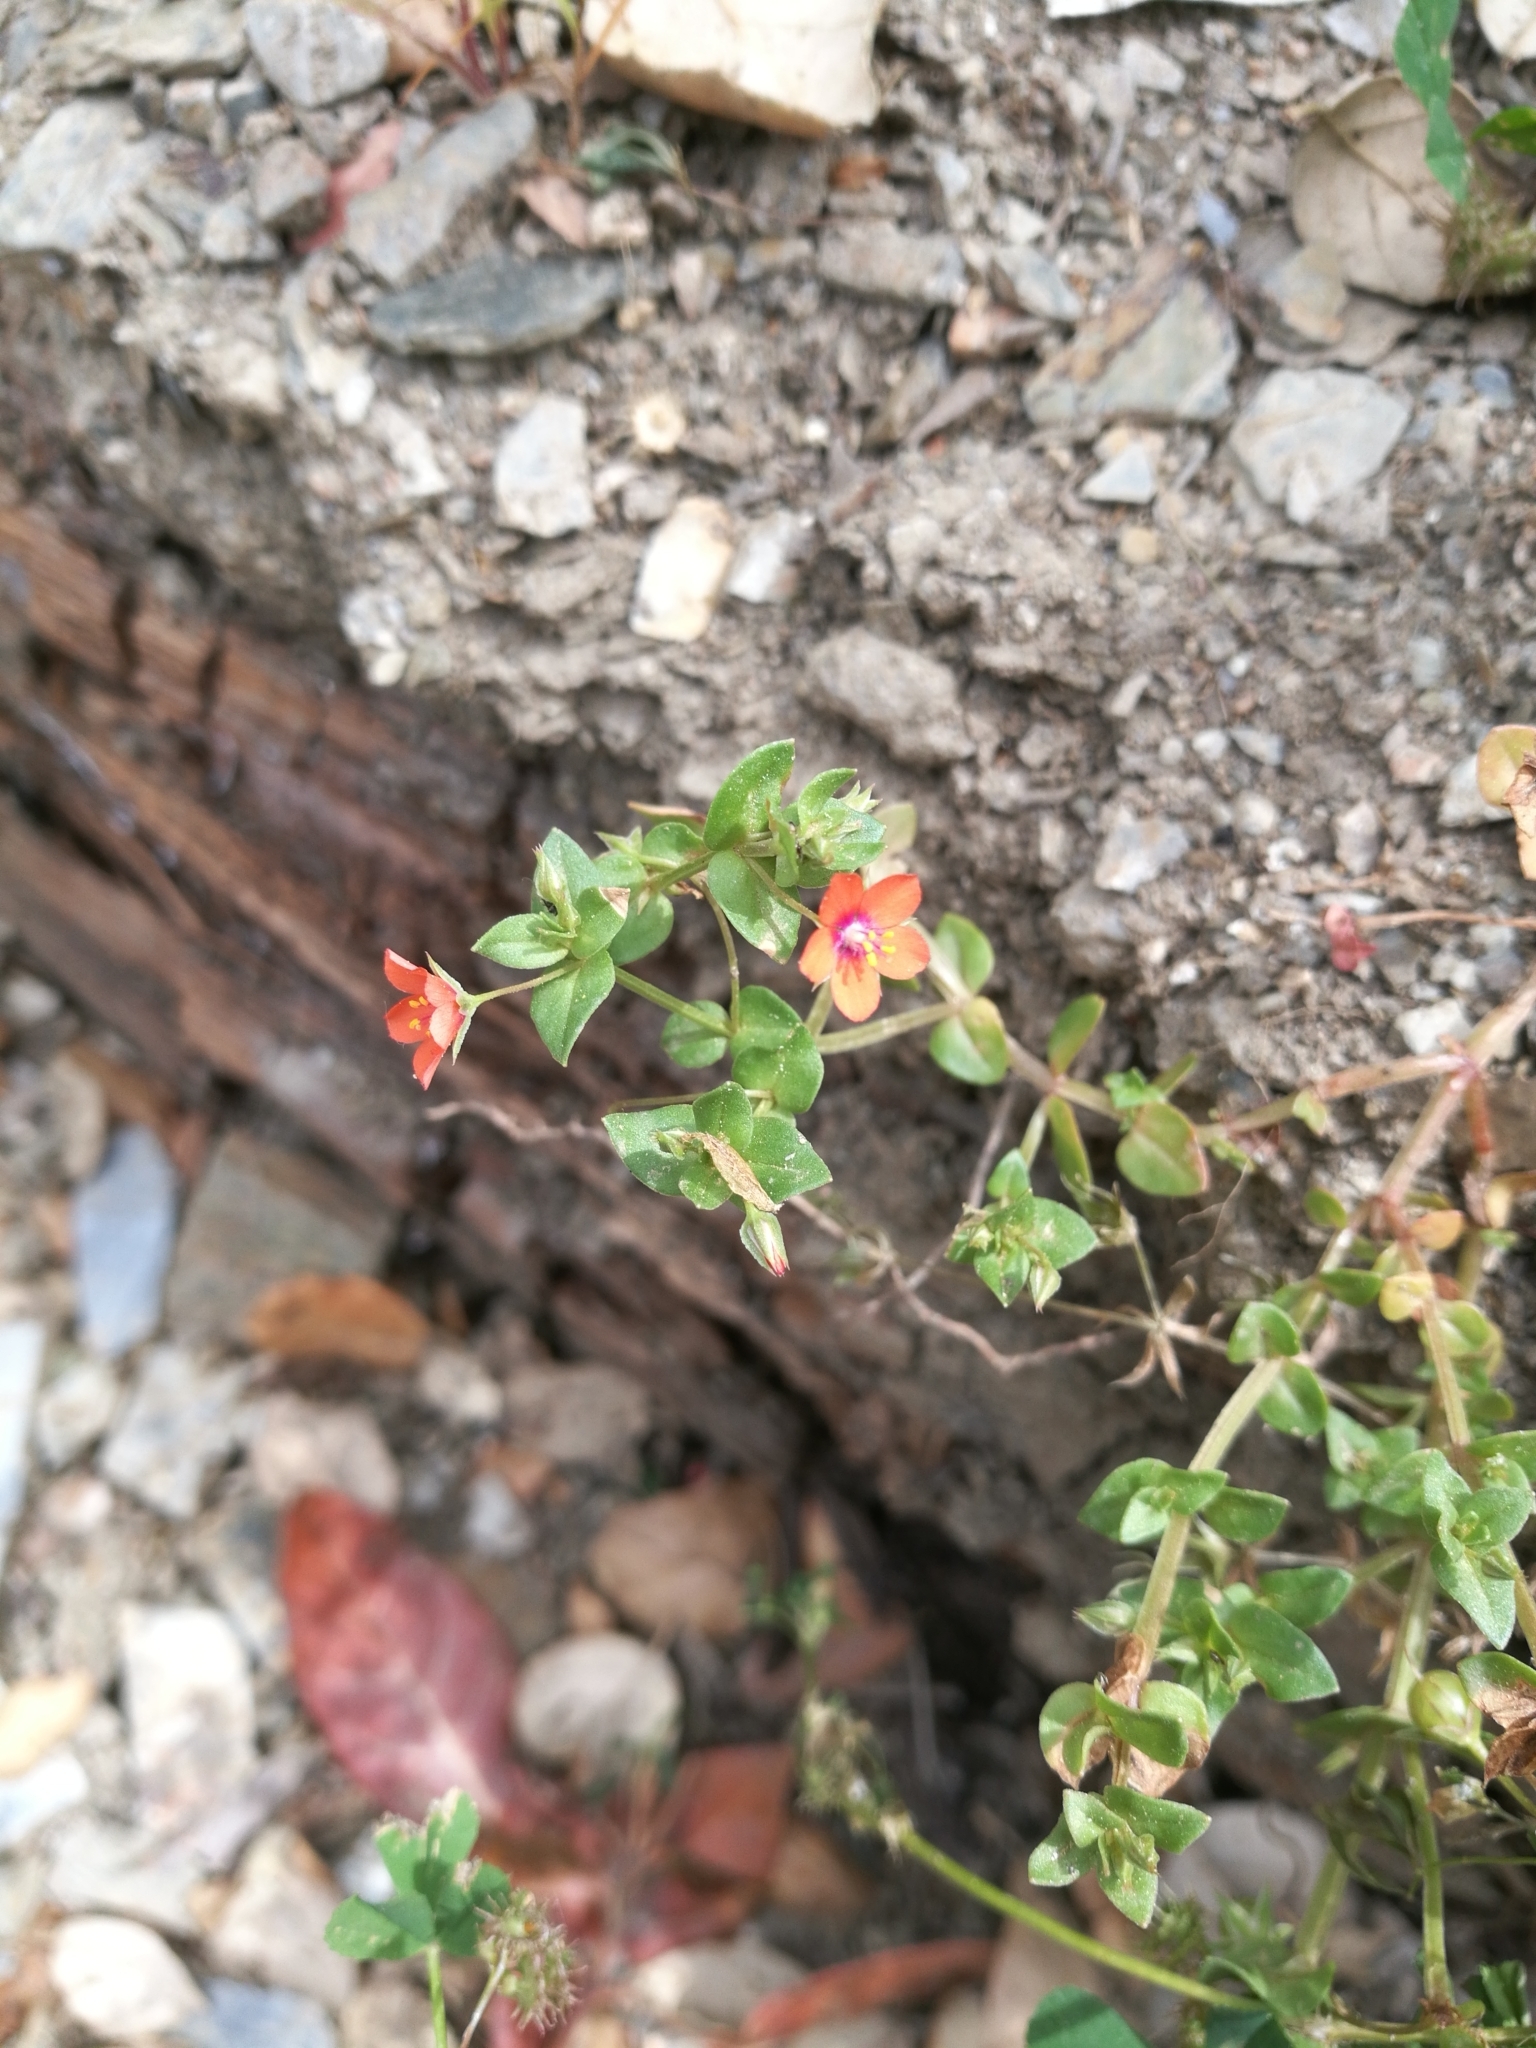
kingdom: Plantae
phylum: Tracheophyta
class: Magnoliopsida
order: Ericales
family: Primulaceae
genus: Lysimachia
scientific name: Lysimachia arvensis
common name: Scarlet pimpernel
